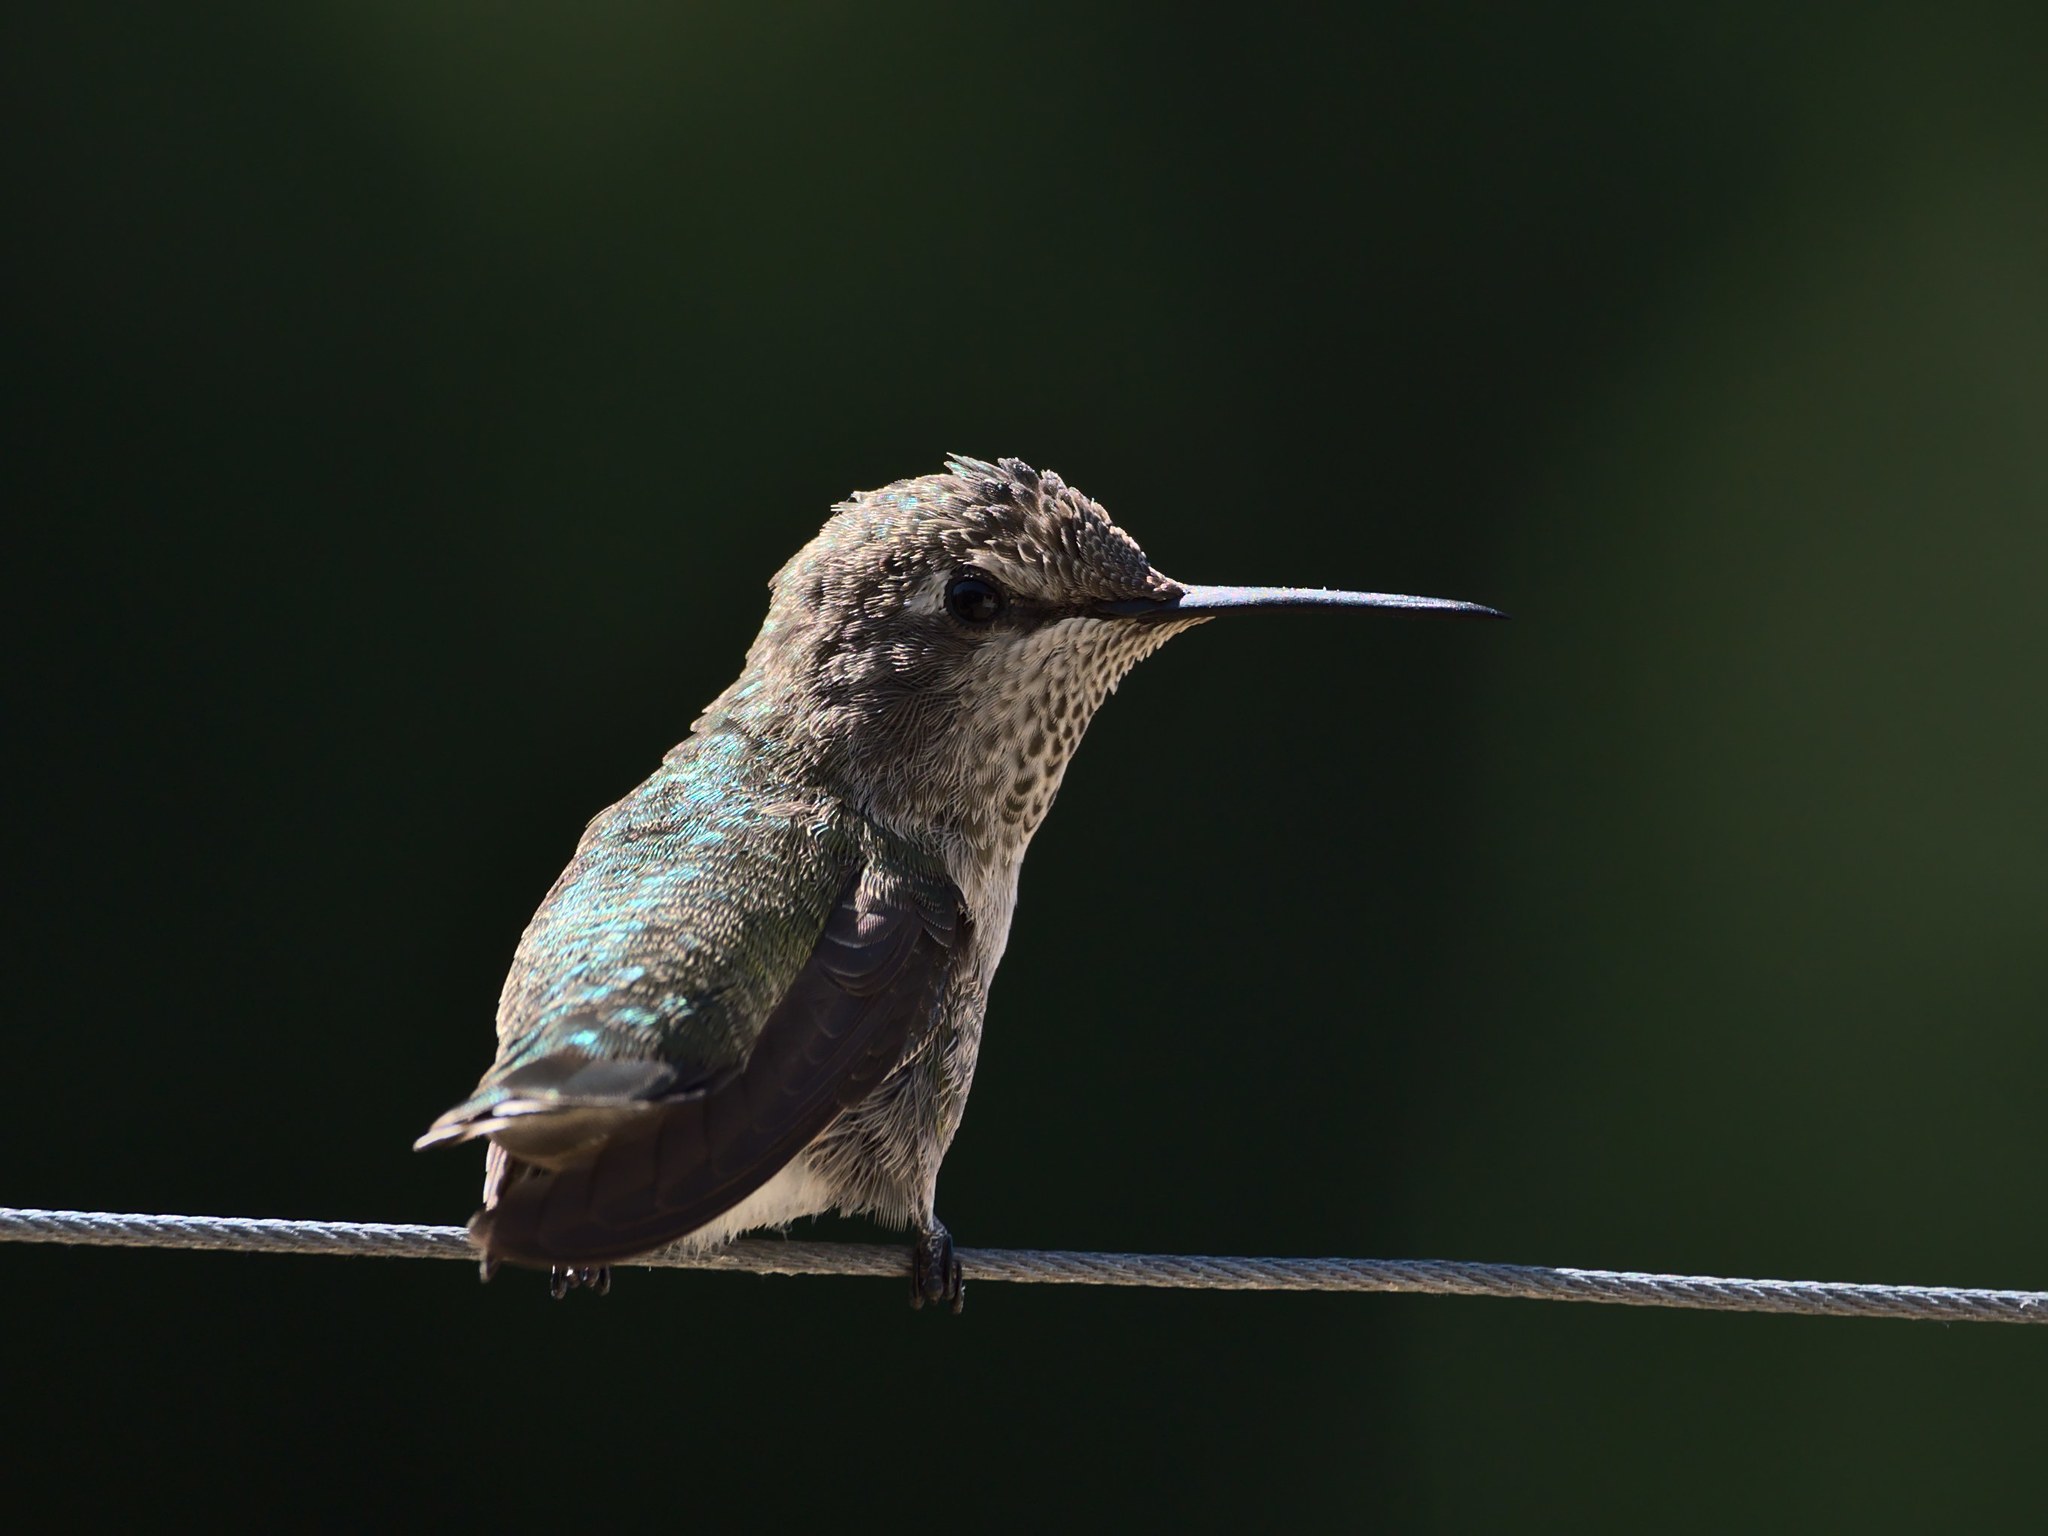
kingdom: Animalia
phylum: Chordata
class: Aves
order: Apodiformes
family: Trochilidae
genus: Calypte
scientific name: Calypte anna
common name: Anna's hummingbird
